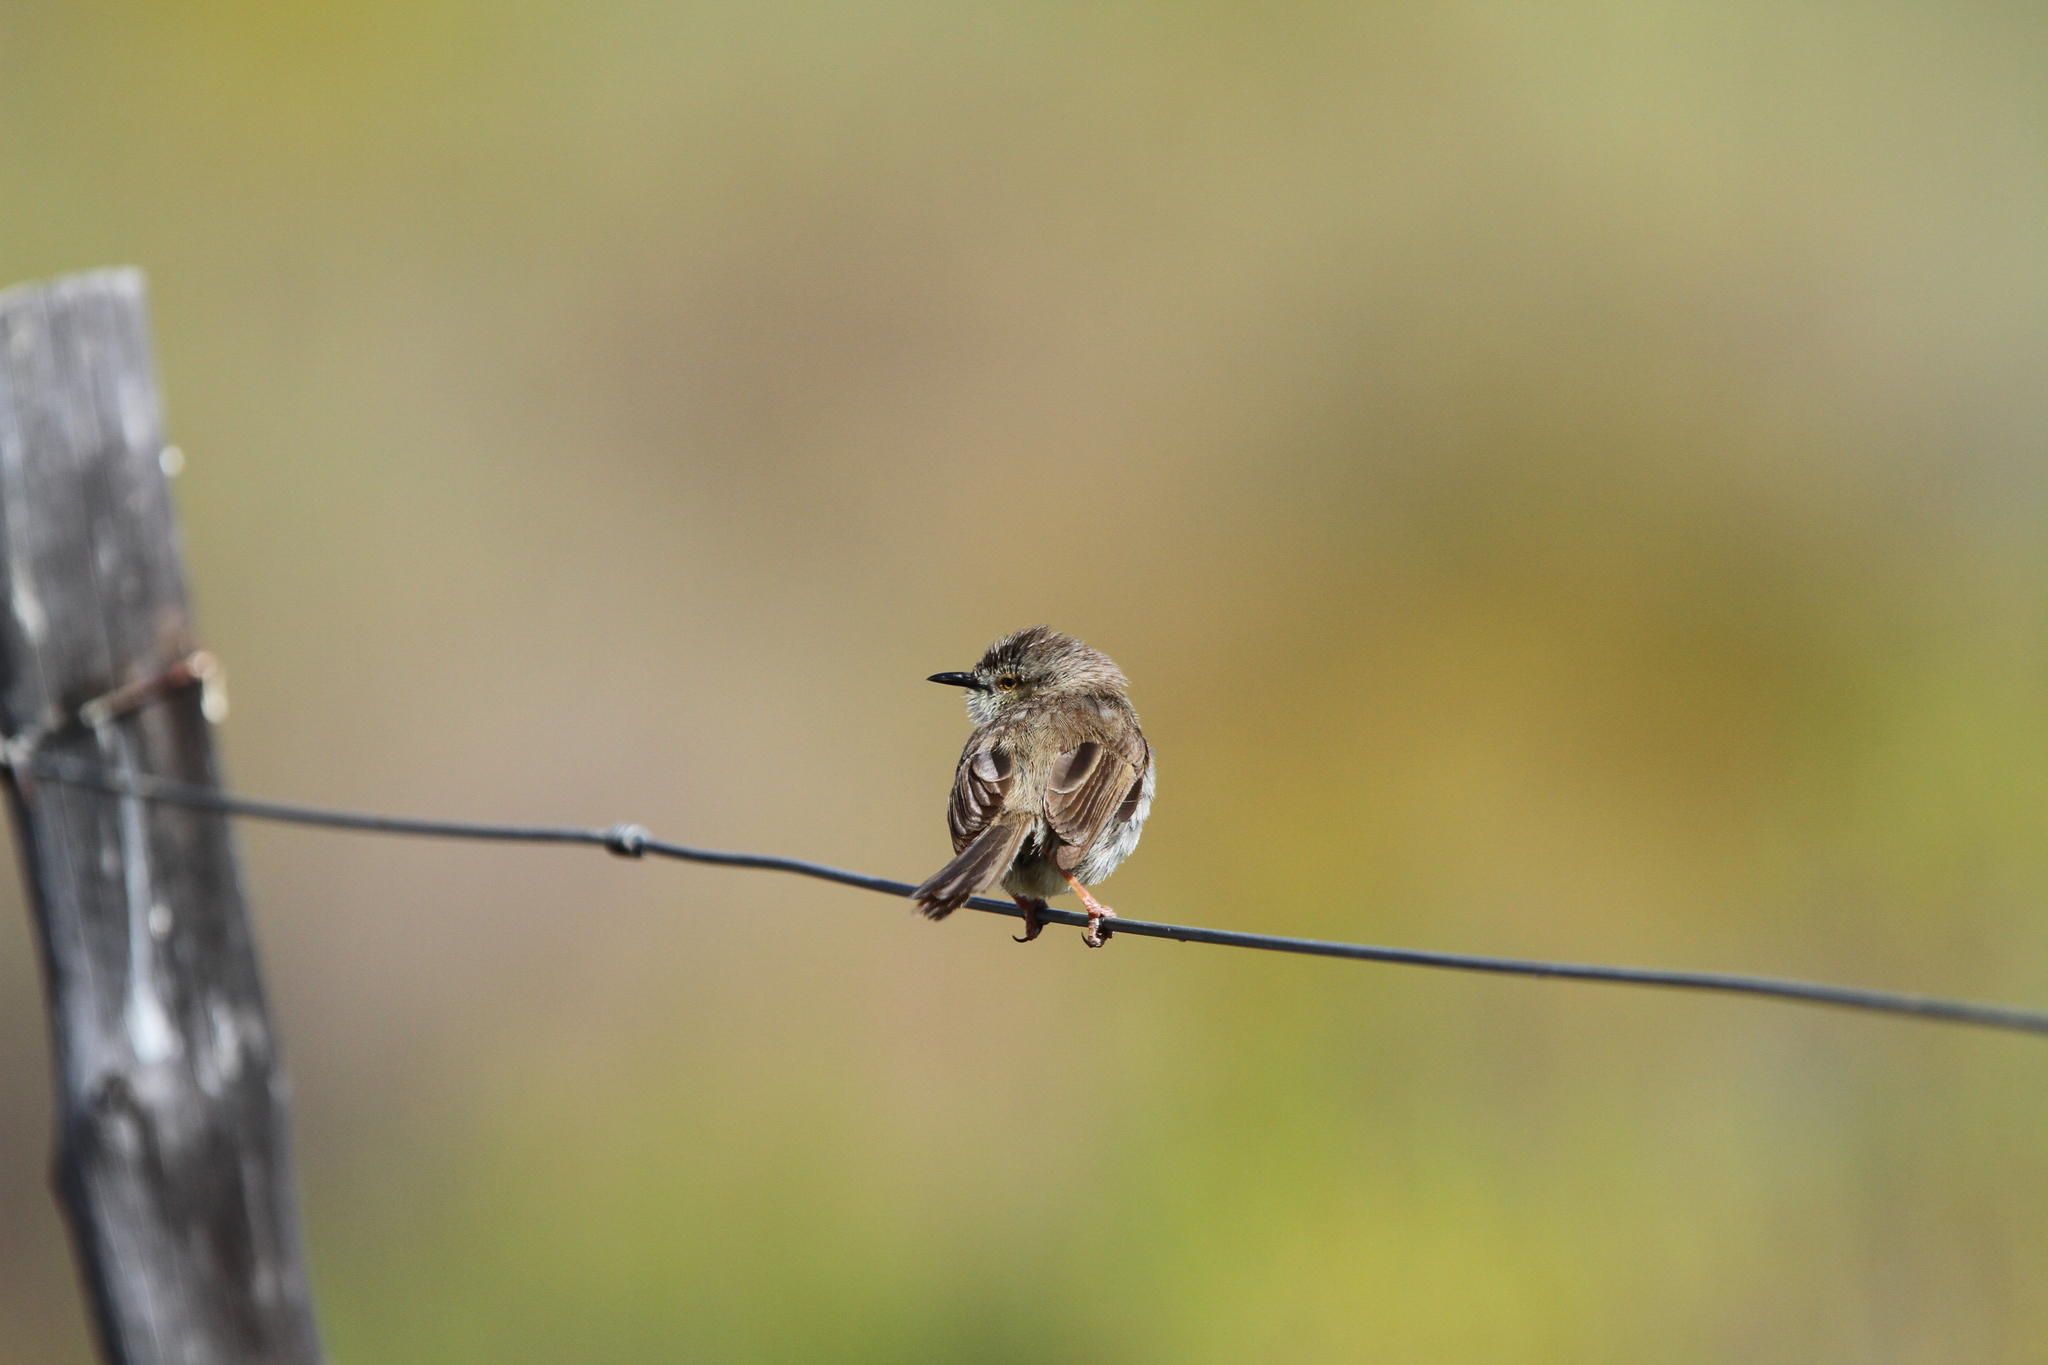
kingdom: Animalia
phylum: Chordata
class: Aves
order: Passeriformes
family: Cisticolidae
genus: Prinia
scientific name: Prinia maculosa
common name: Karoo prinia
